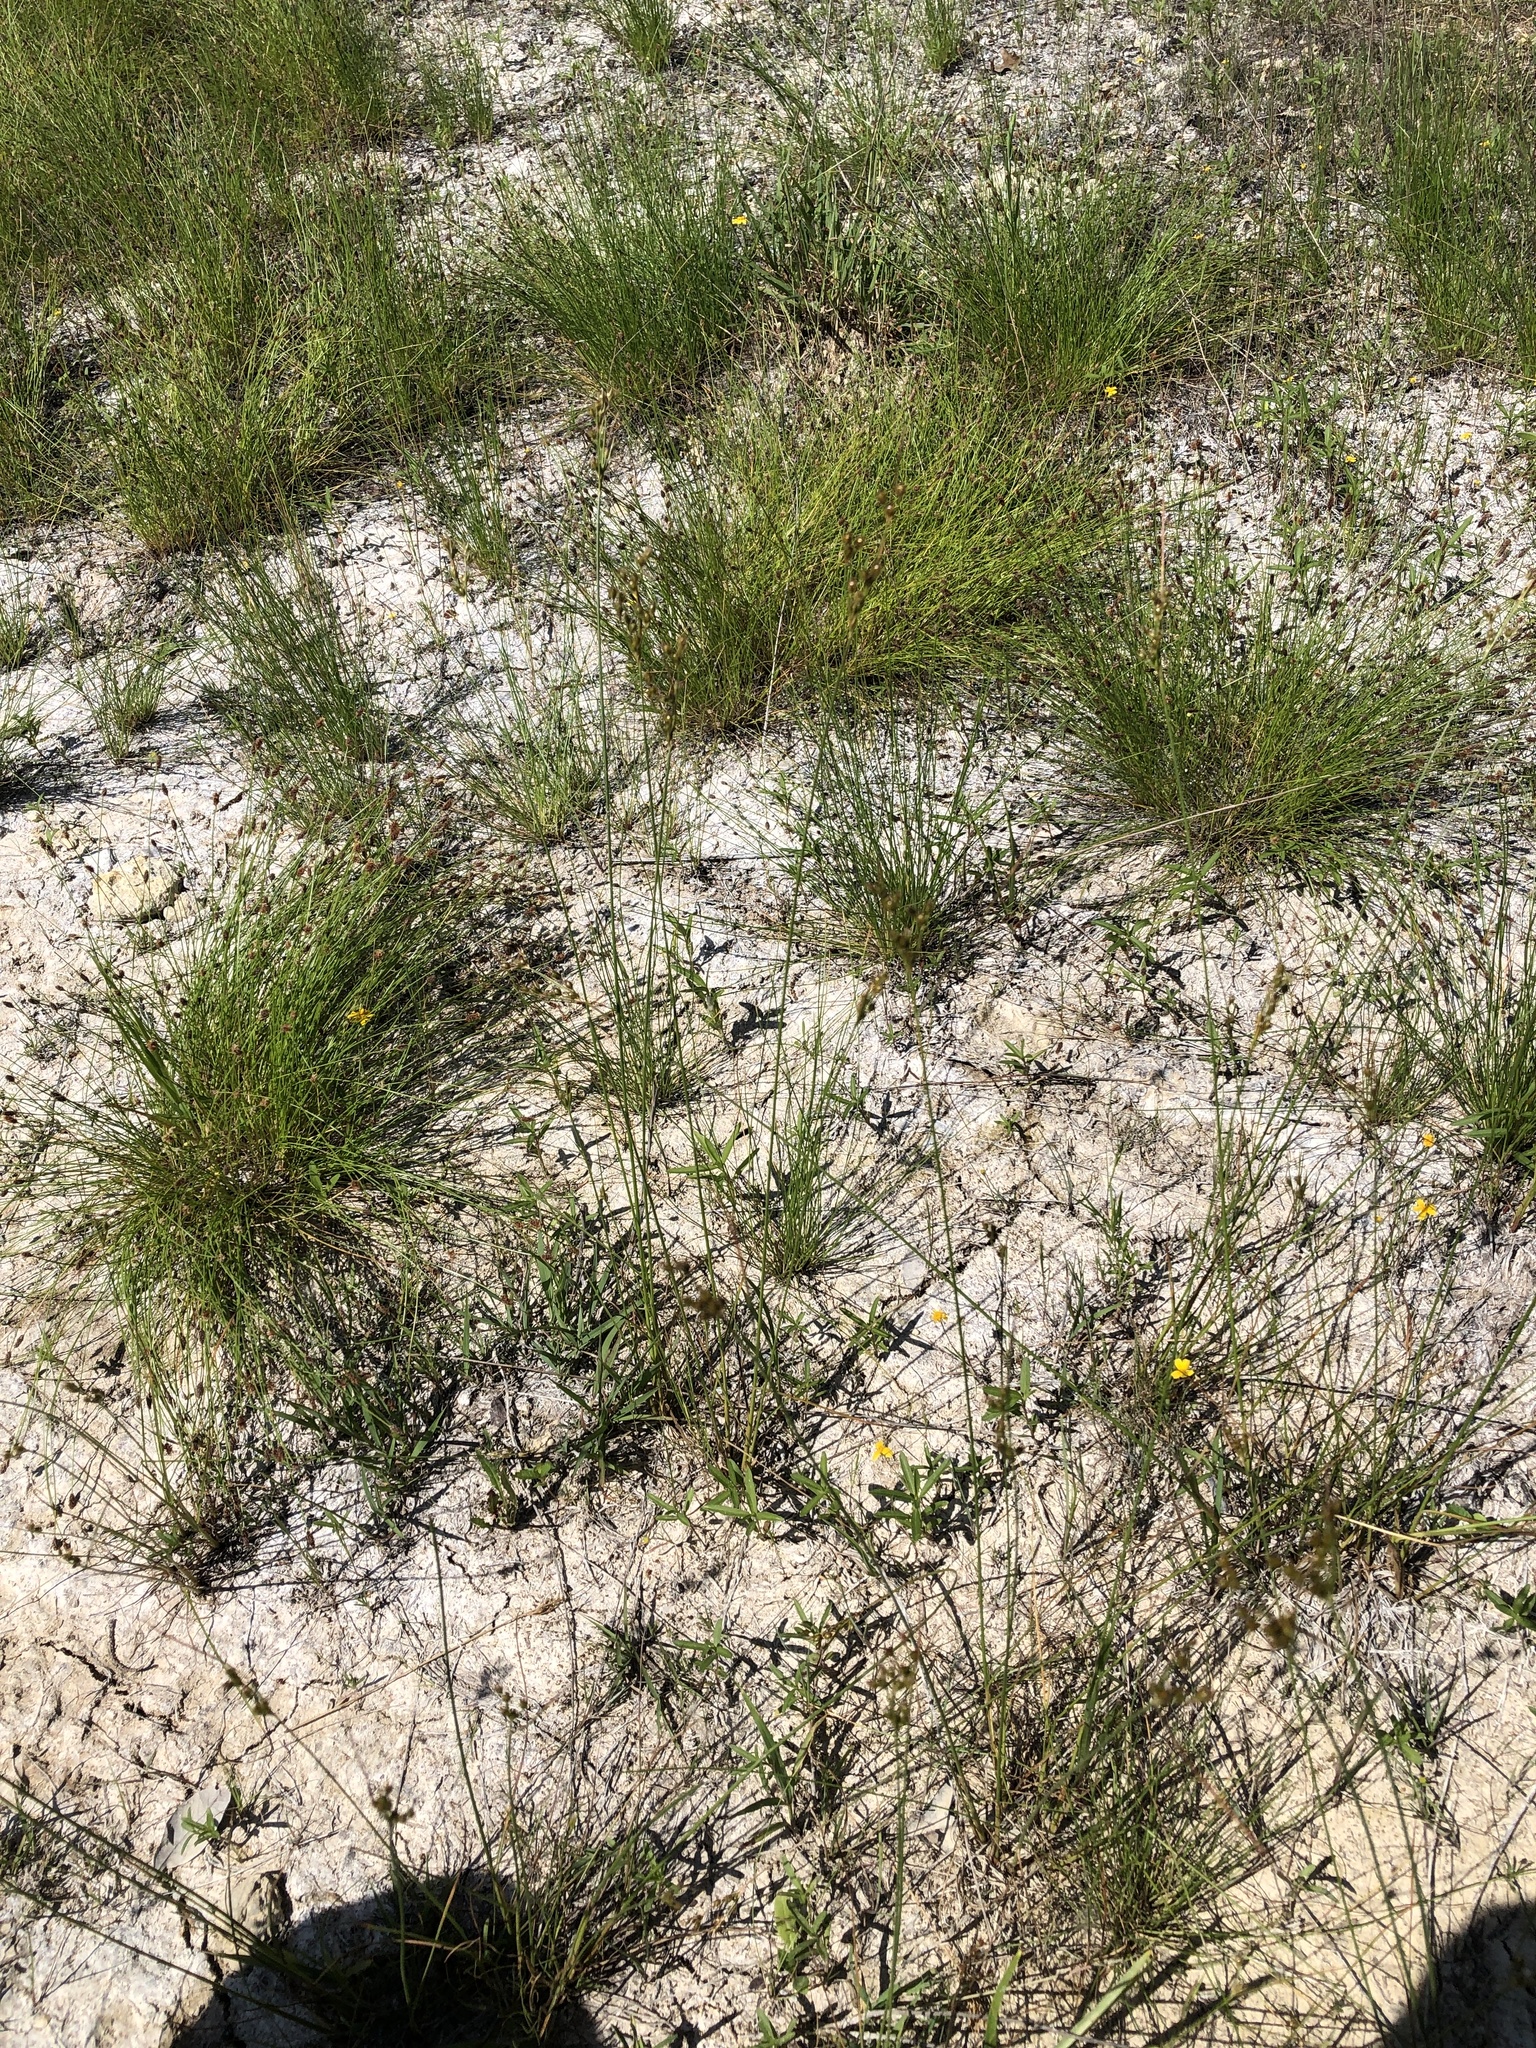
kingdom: Plantae
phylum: Tracheophyta
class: Liliopsida
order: Poales
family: Juncaceae
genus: Juncus
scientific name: Juncus tenuis
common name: Slender rush
